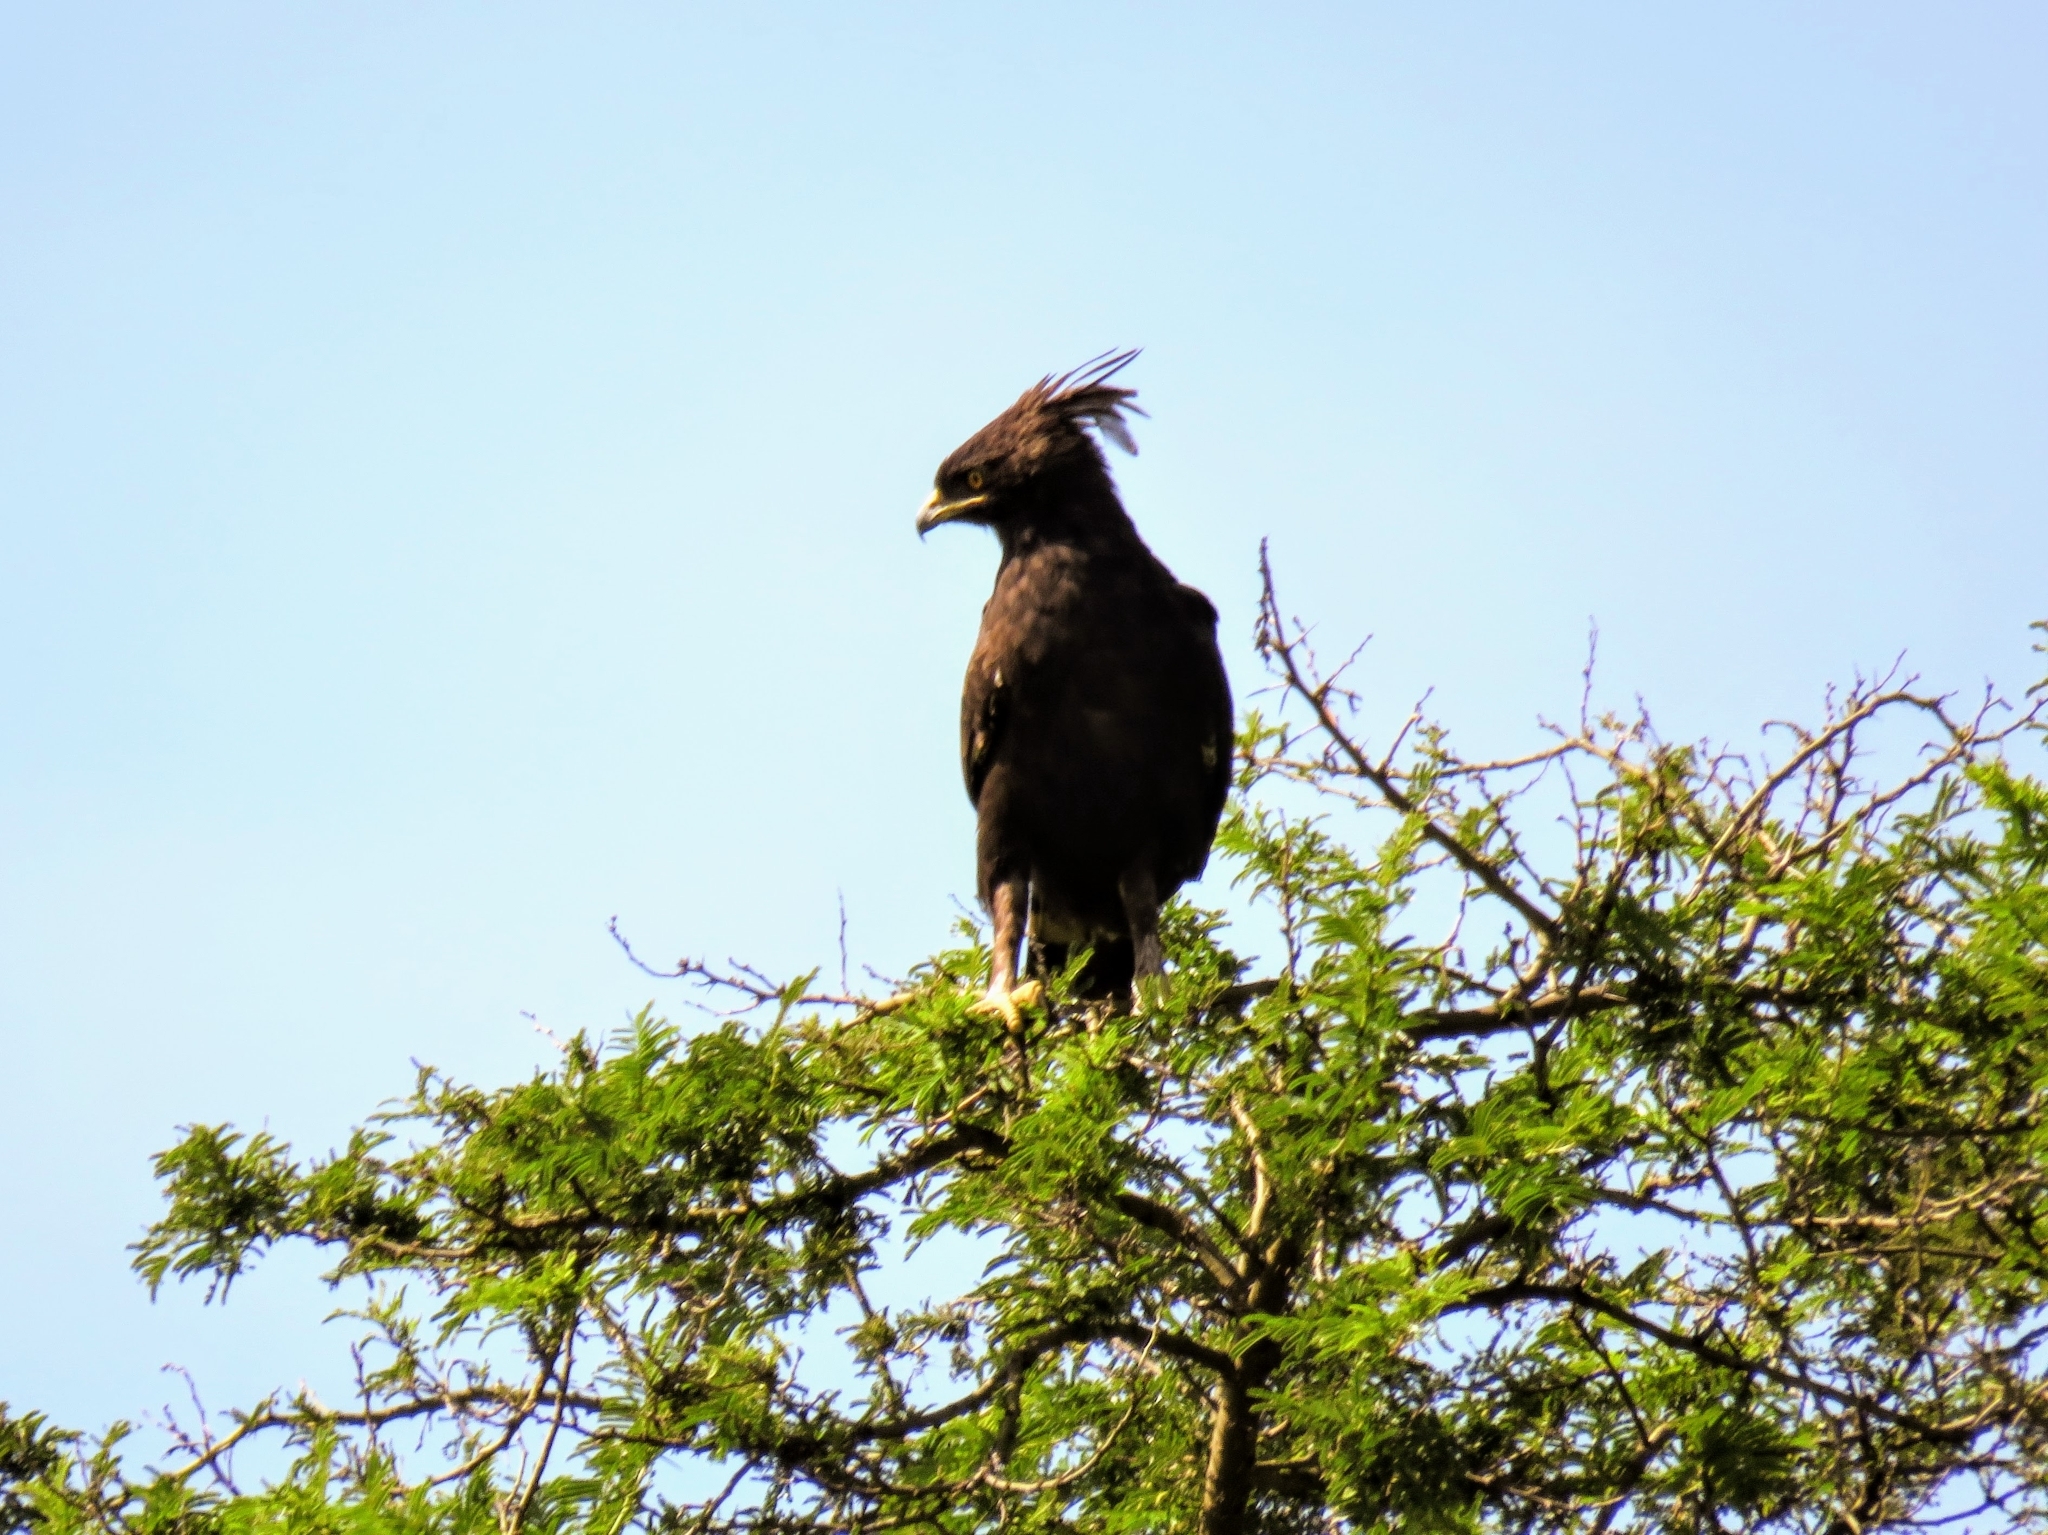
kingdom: Animalia
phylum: Chordata
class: Aves
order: Accipitriformes
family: Accipitridae
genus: Lophaetus
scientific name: Lophaetus occipitalis
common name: Long-crested eagle
